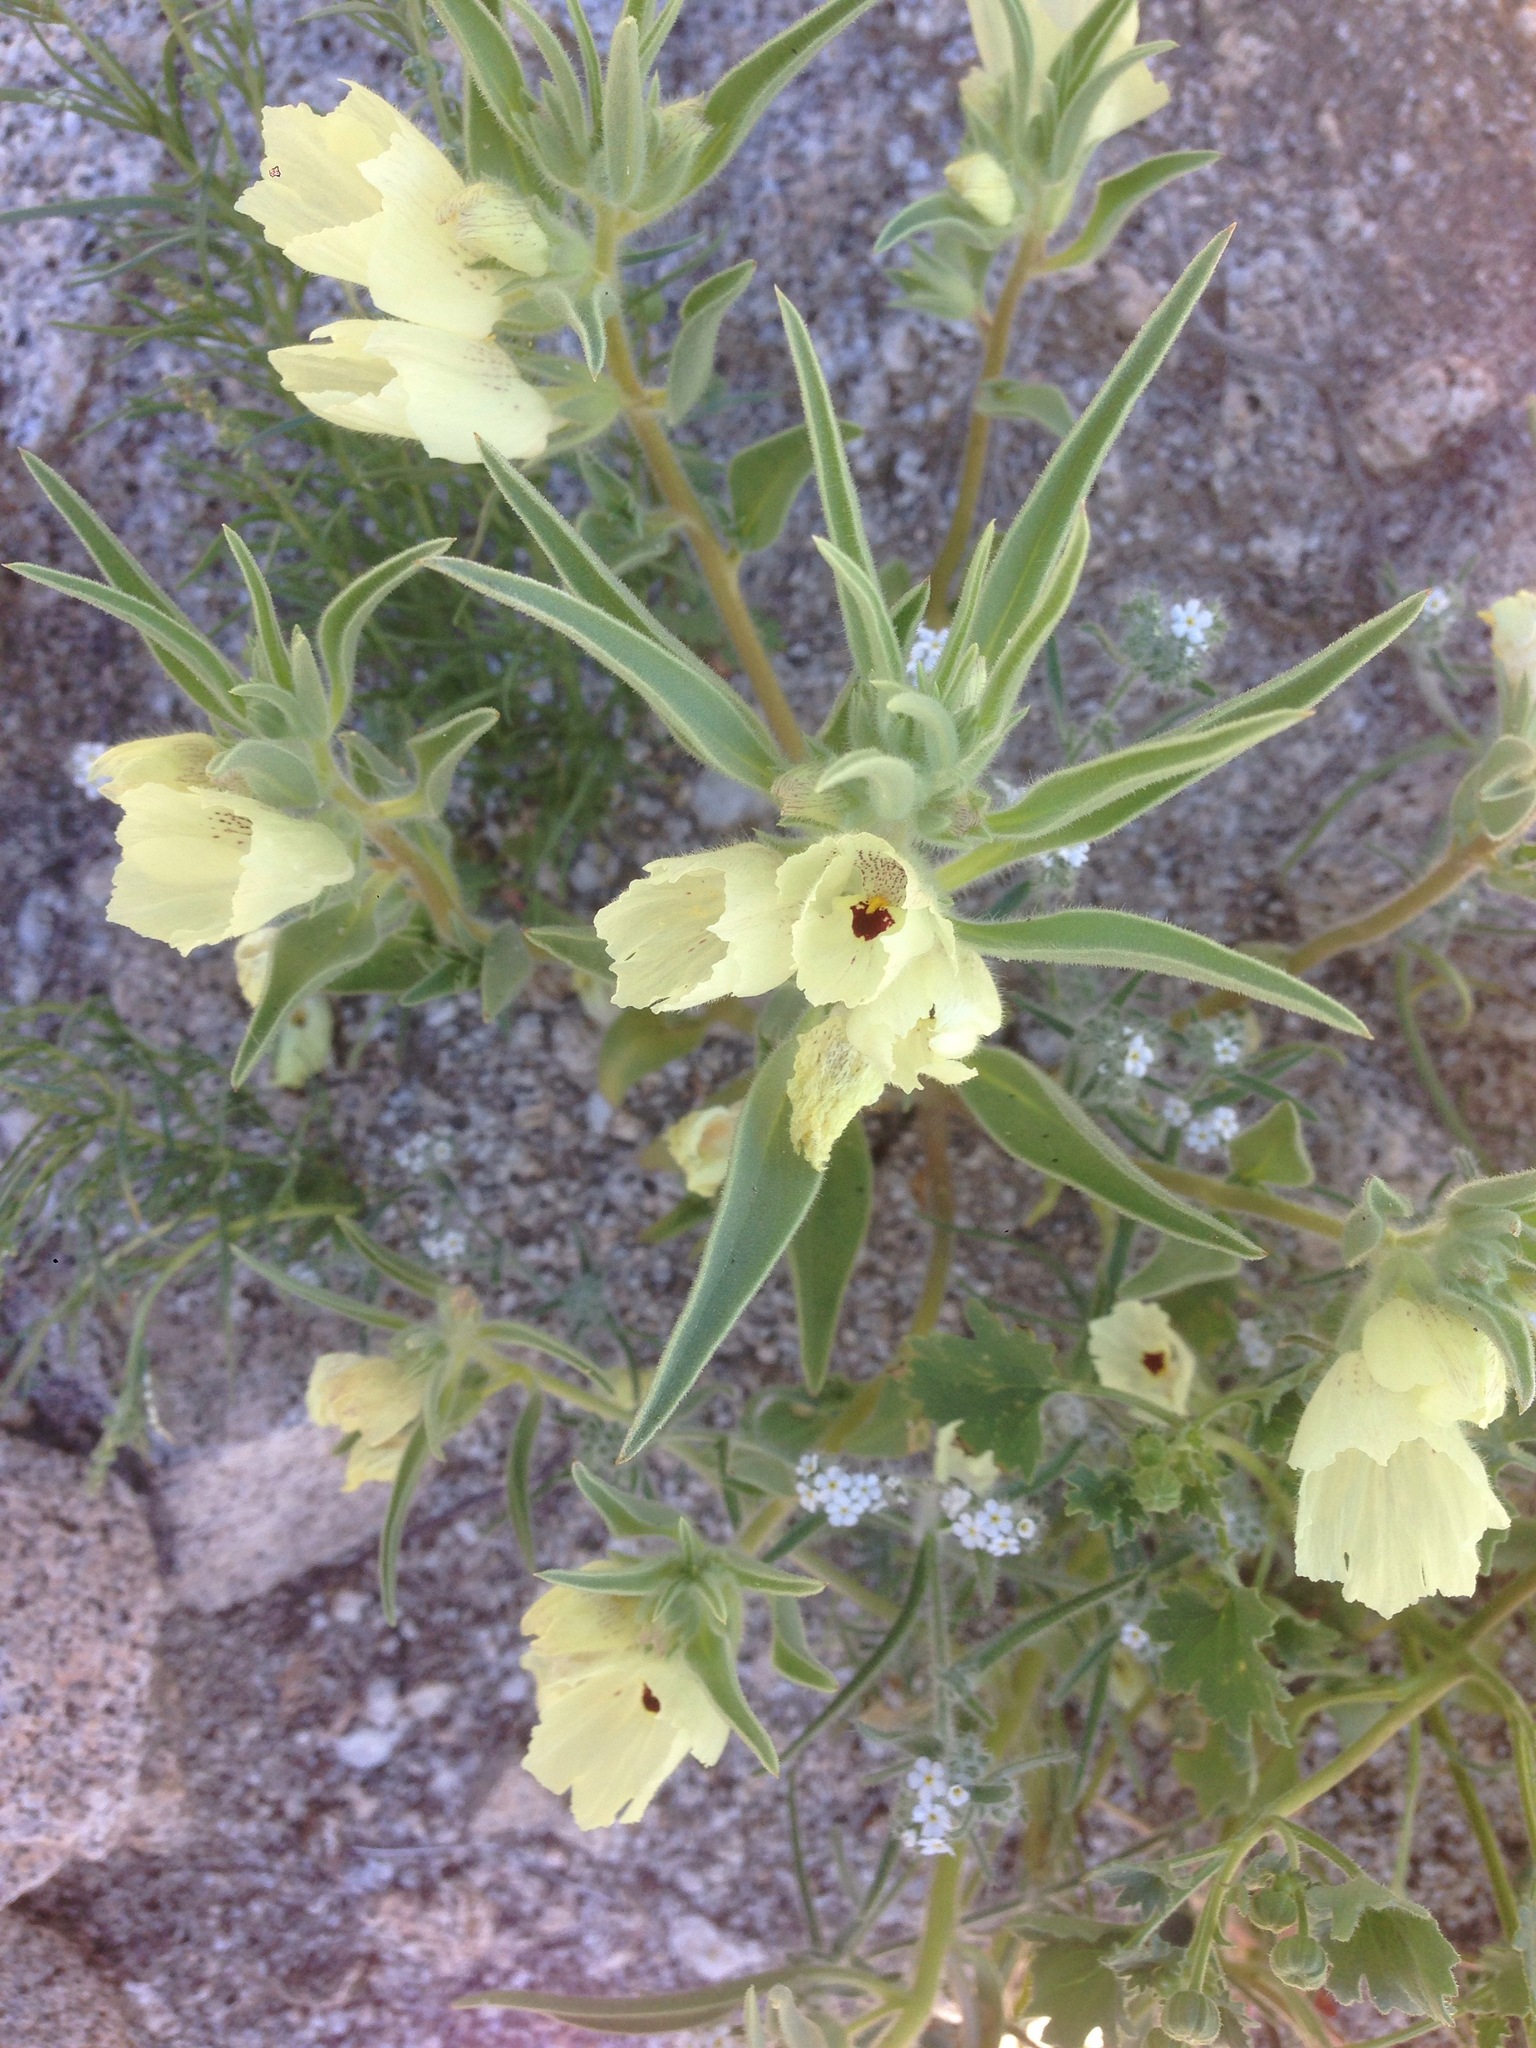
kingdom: Plantae
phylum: Tracheophyta
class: Magnoliopsida
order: Lamiales
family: Plantaginaceae
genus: Mohavea
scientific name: Mohavea confertiflora
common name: Ghost flower
